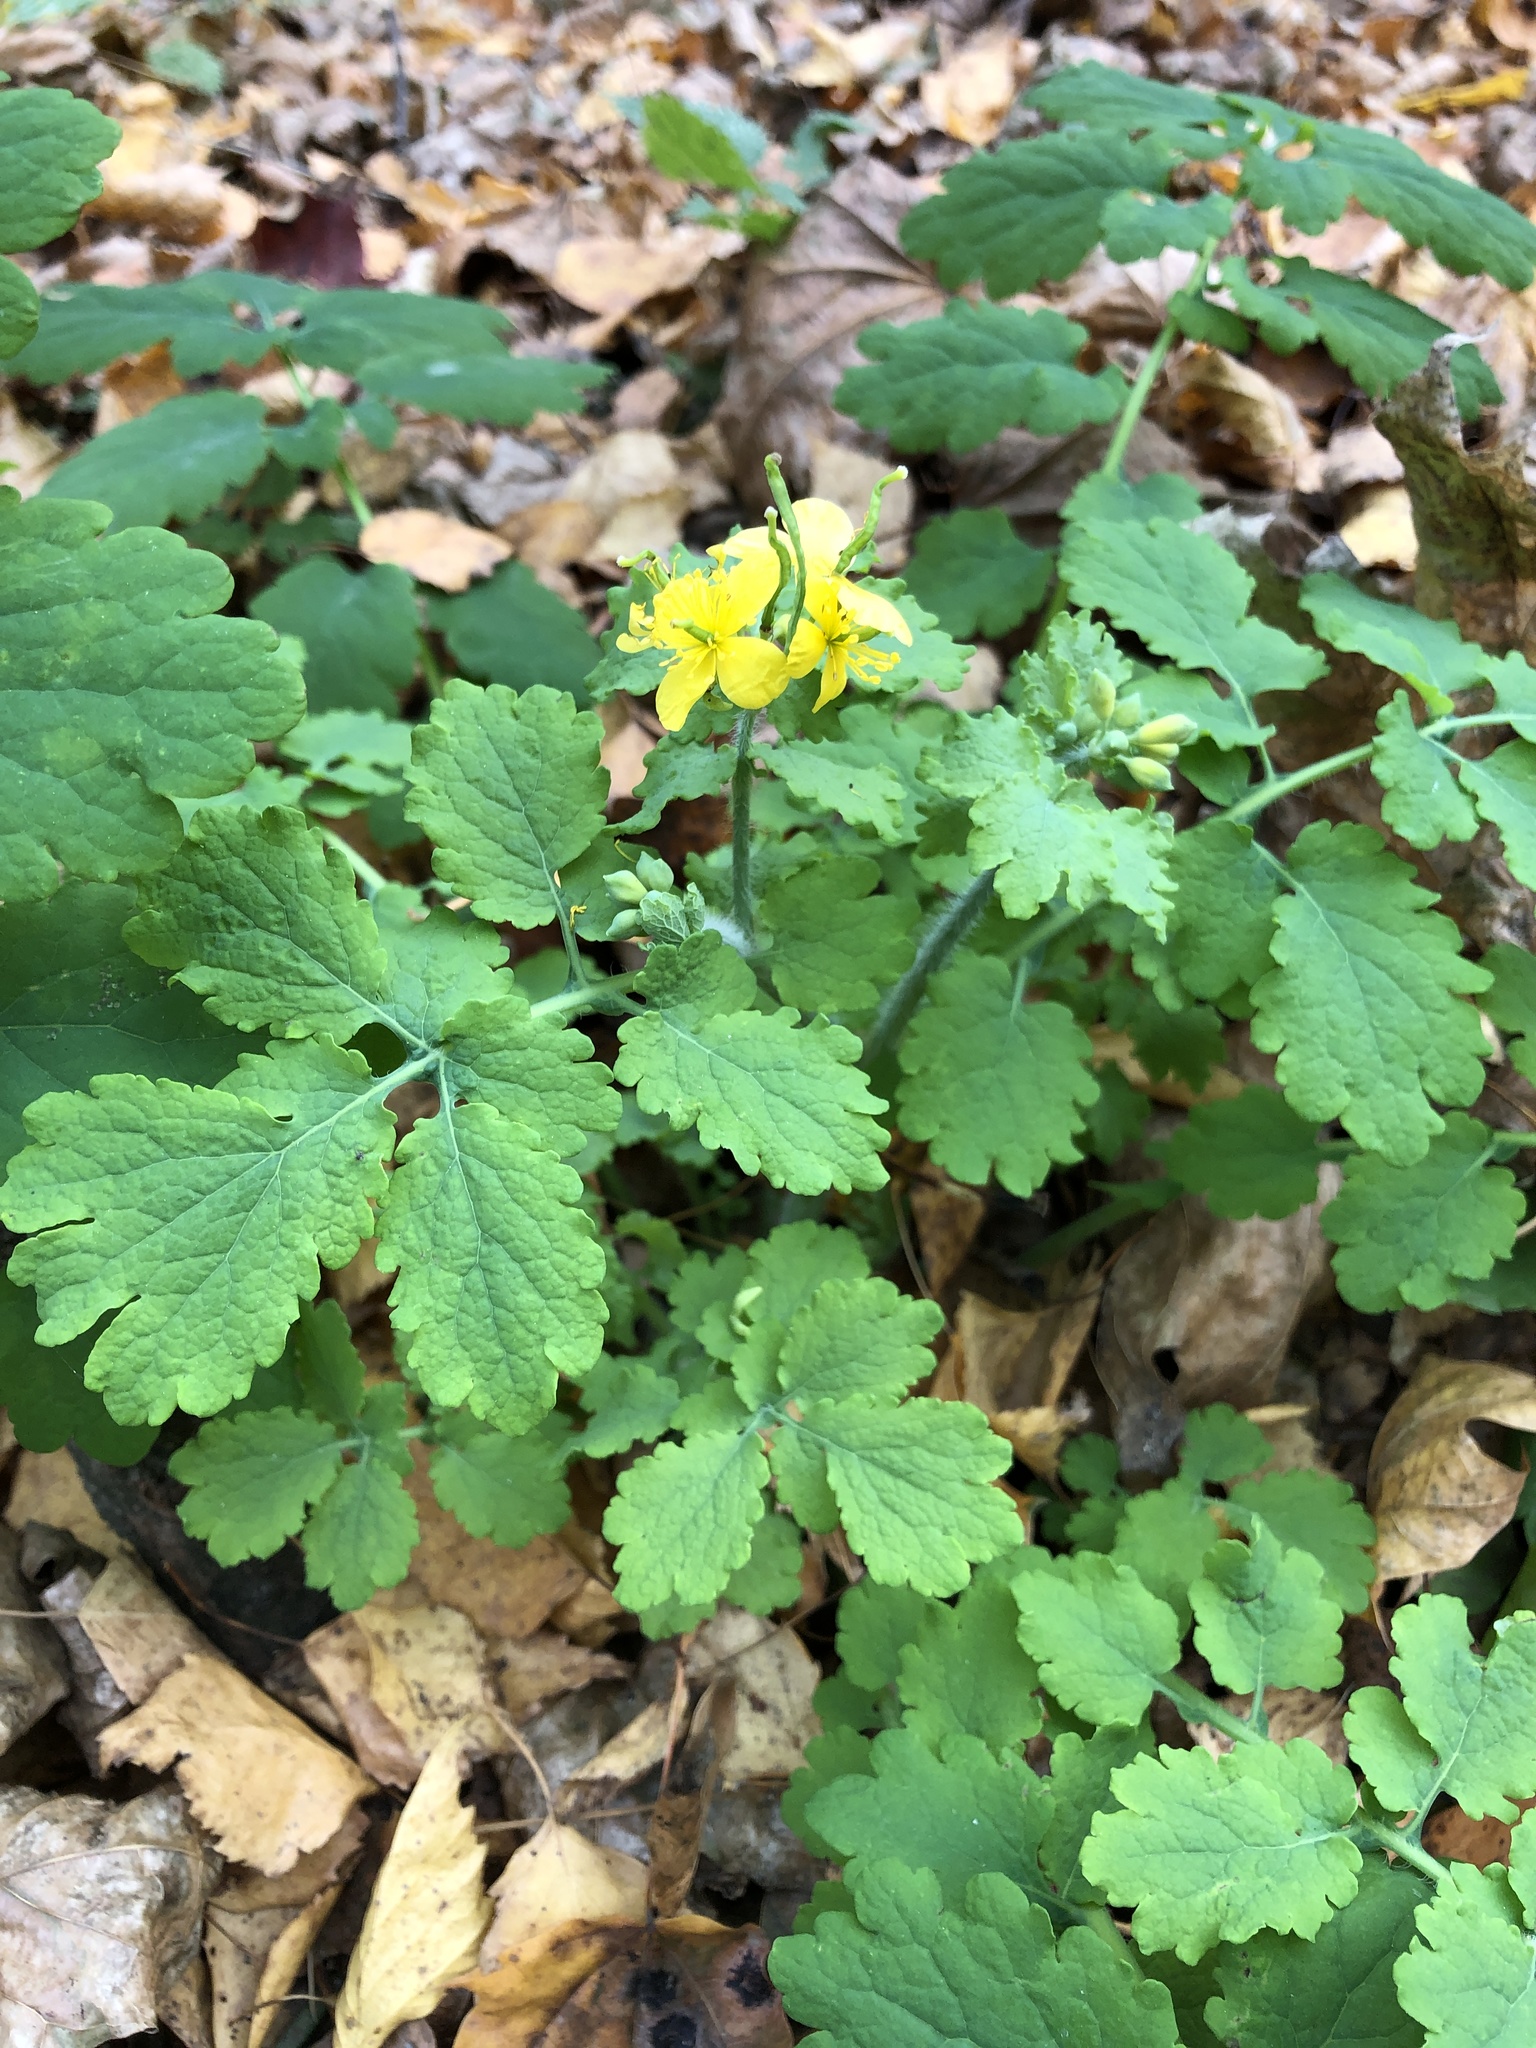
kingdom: Plantae
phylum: Tracheophyta
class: Magnoliopsida
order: Ranunculales
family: Papaveraceae
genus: Chelidonium
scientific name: Chelidonium majus
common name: Greater celandine
